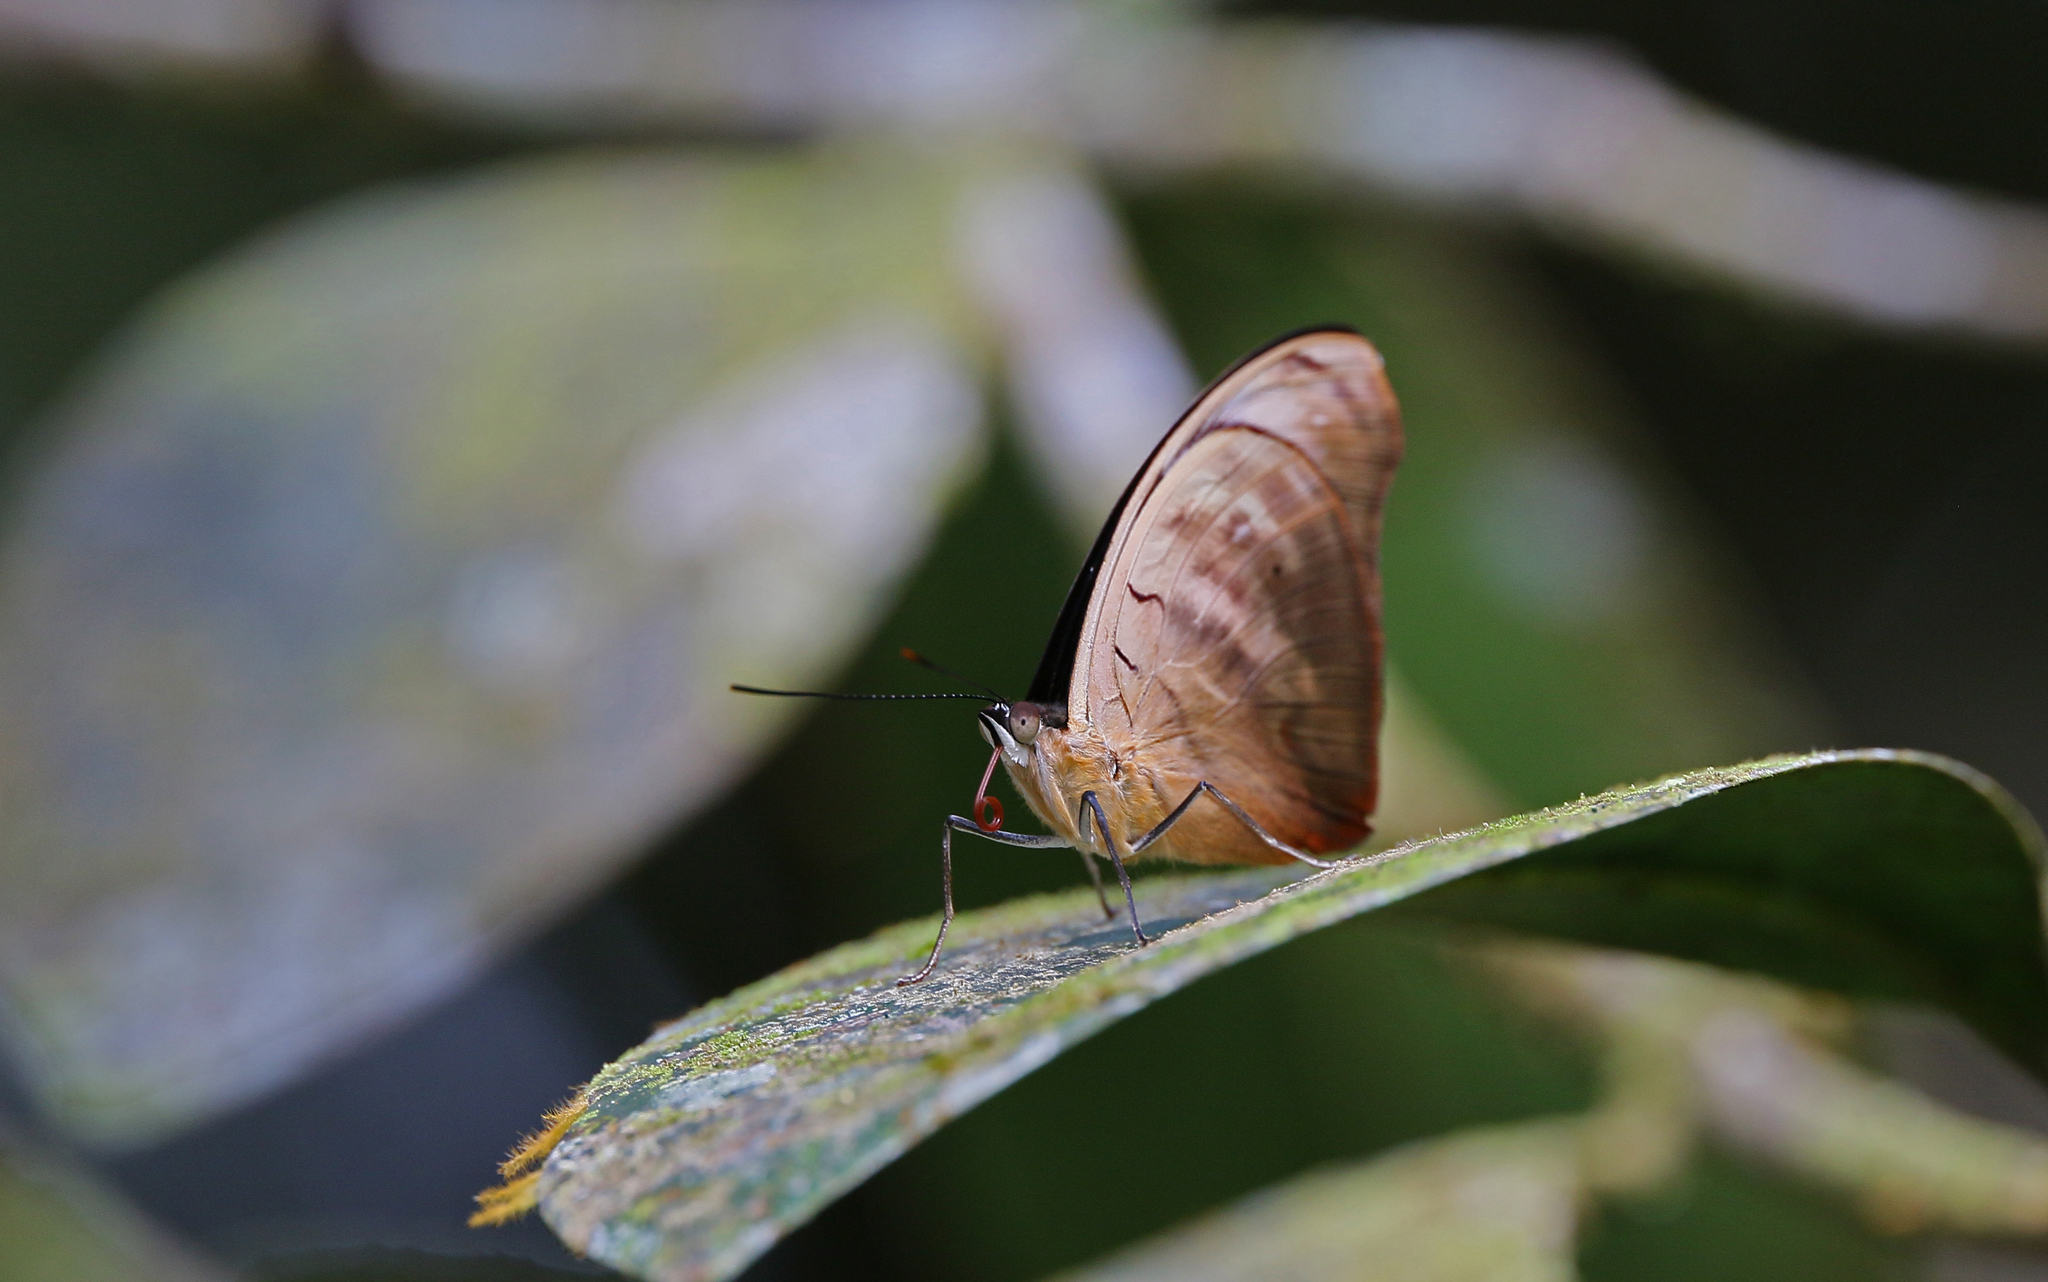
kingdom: Animalia
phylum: Arthropoda
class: Insecta
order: Lepidoptera
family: Nymphalidae
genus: Catonephele
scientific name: Catonephele numilia
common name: Blue-frosted banner
